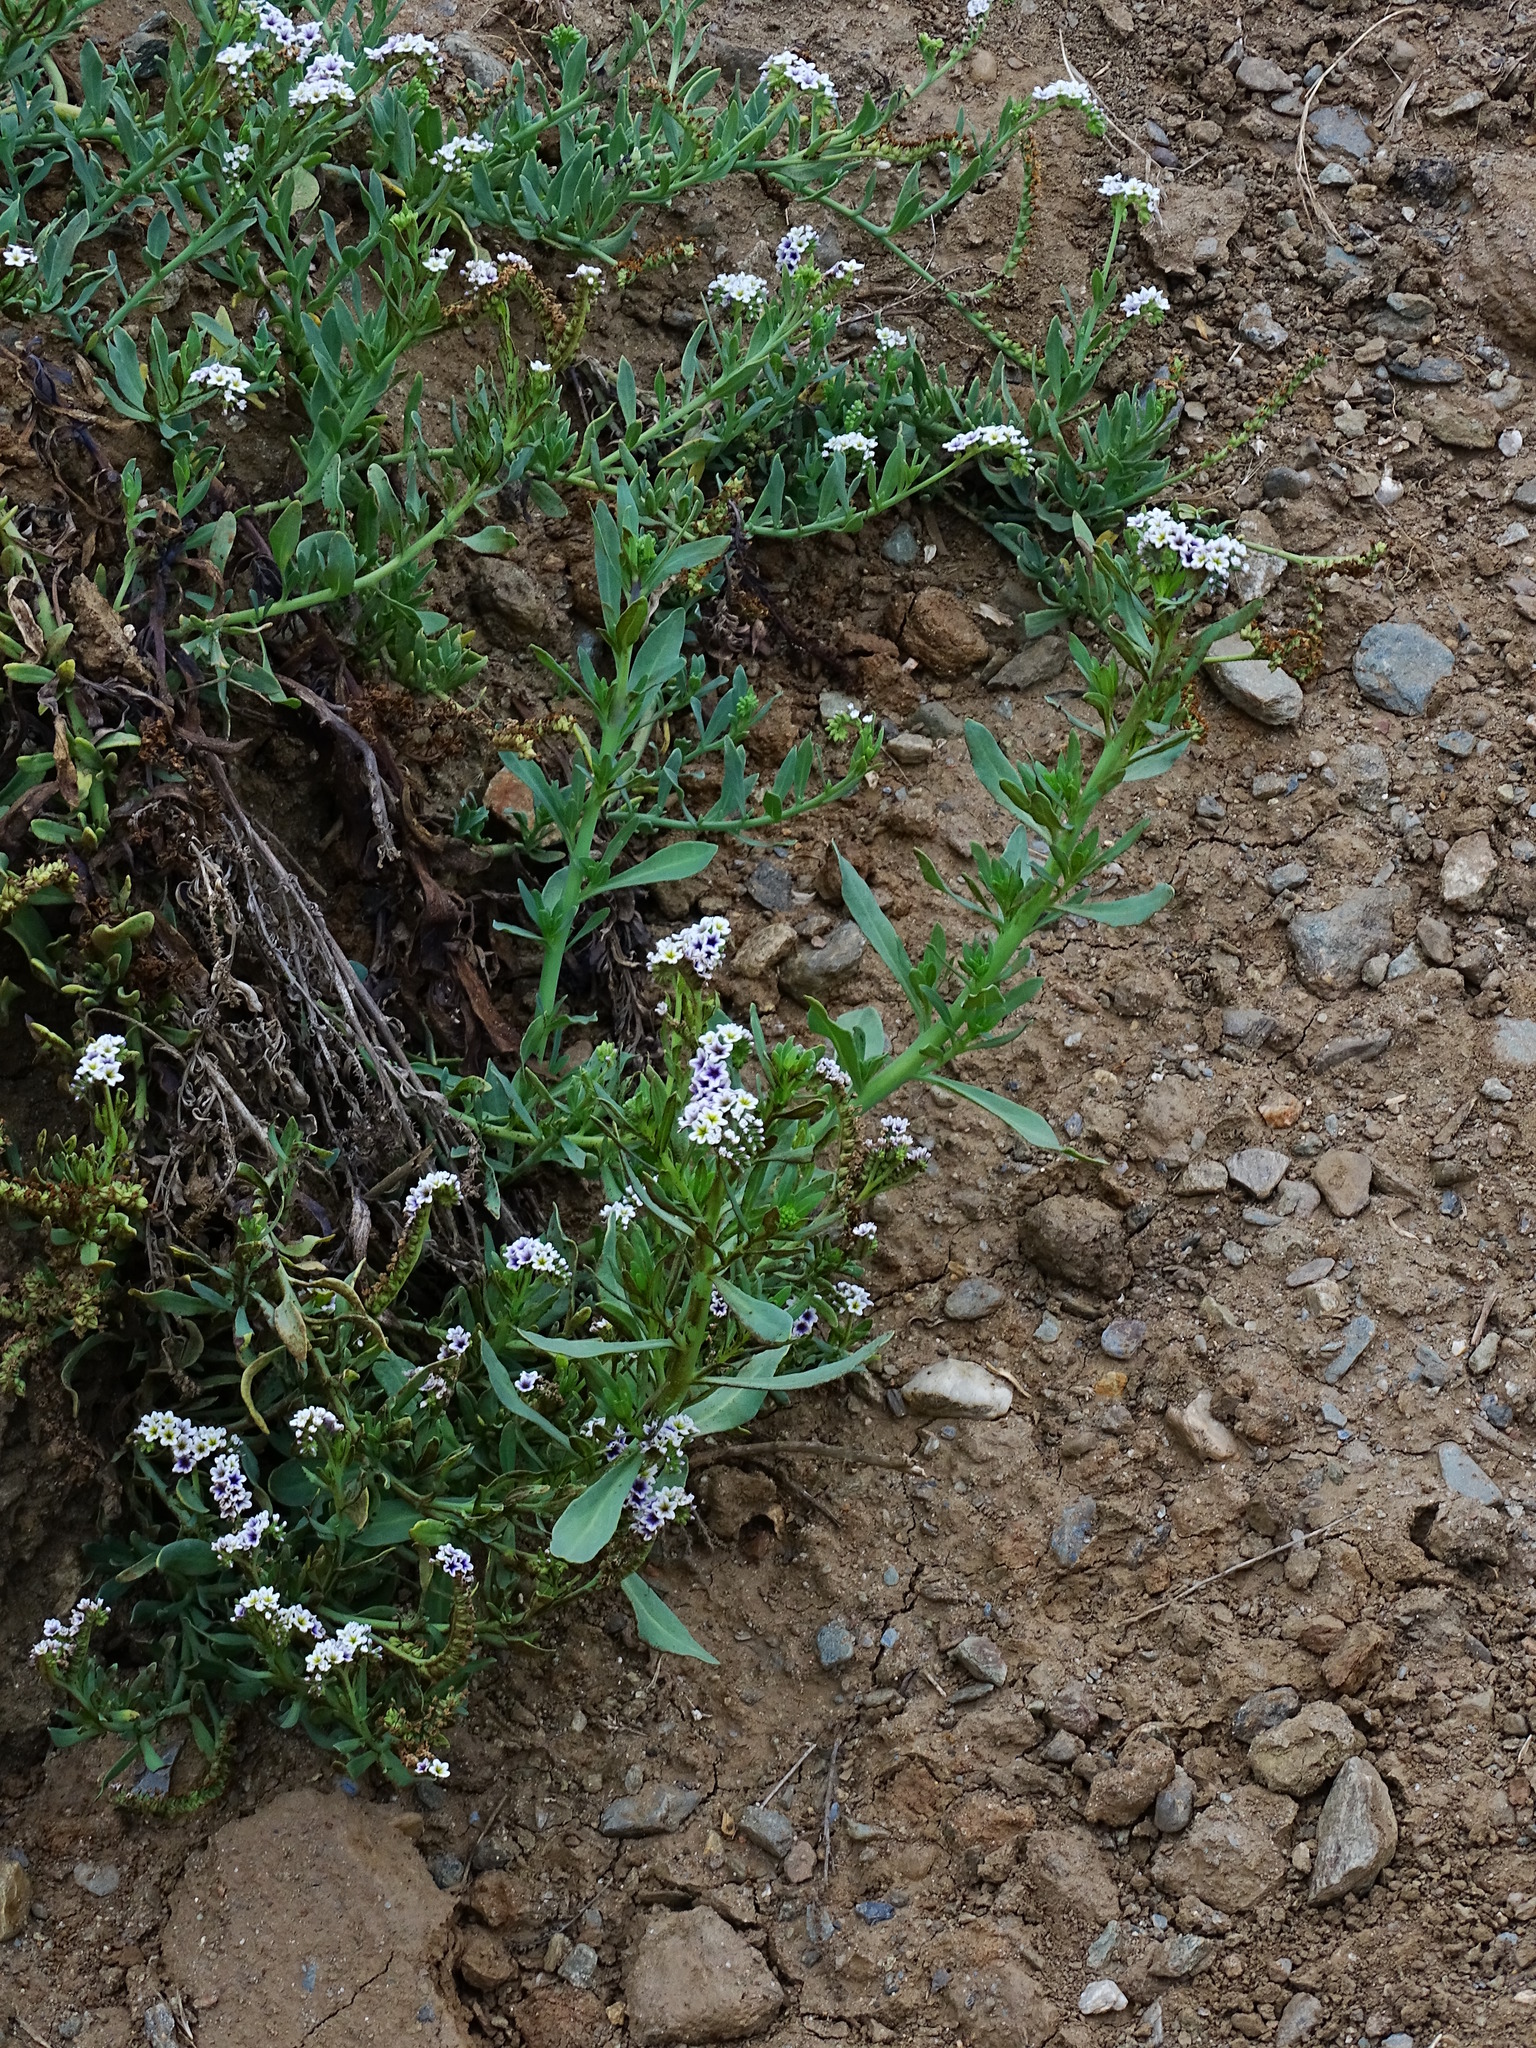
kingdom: Plantae
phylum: Tracheophyta
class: Magnoliopsida
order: Boraginales
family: Heliotropiaceae
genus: Heliotropium
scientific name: Heliotropium curassavicum
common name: Seaside heliotrope
